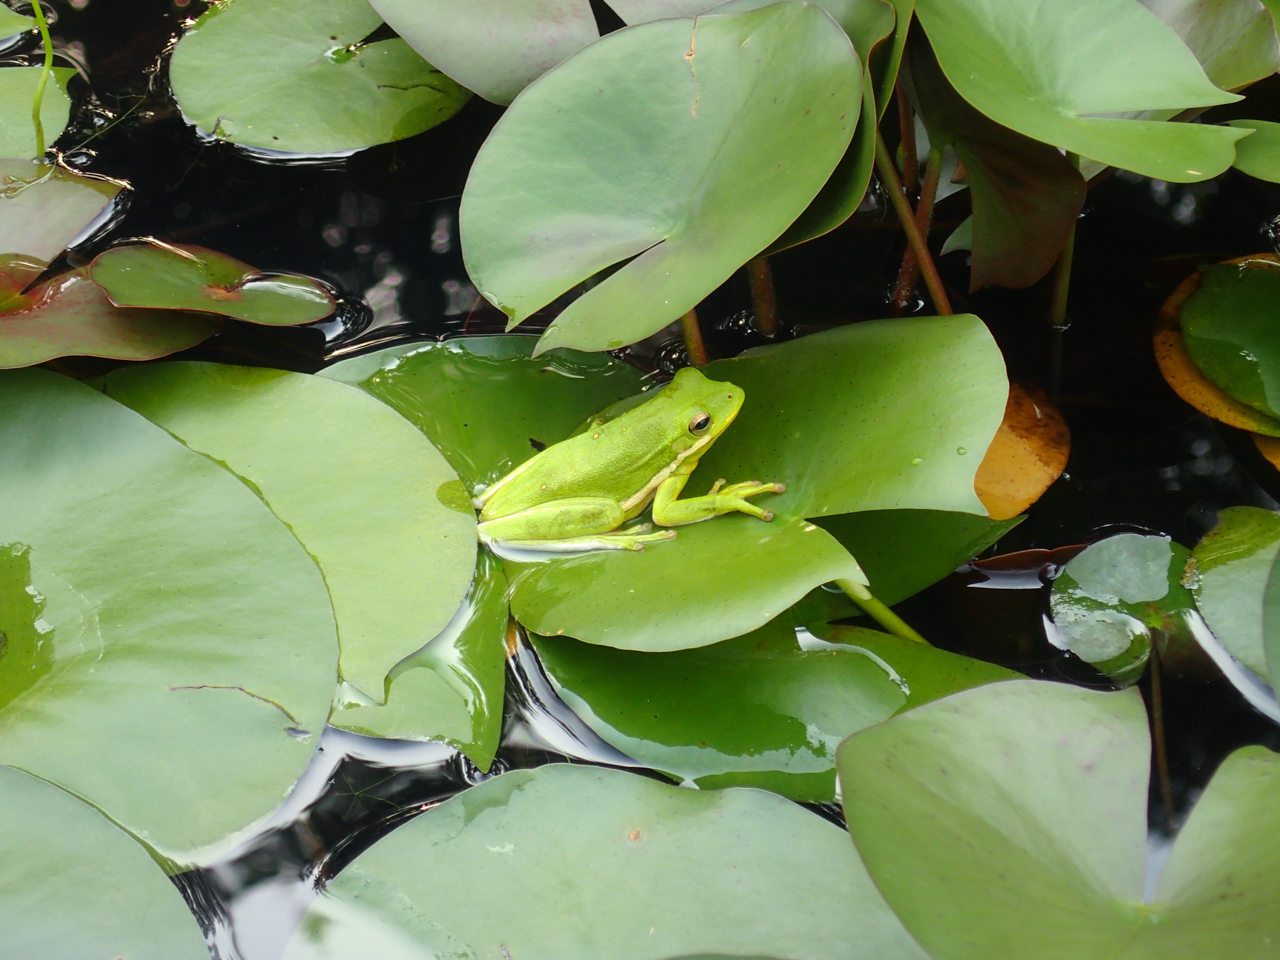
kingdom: Animalia
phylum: Chordata
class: Amphibia
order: Anura
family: Hylidae
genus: Dryophytes
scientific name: Dryophytes cinereus
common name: Green treefrog
